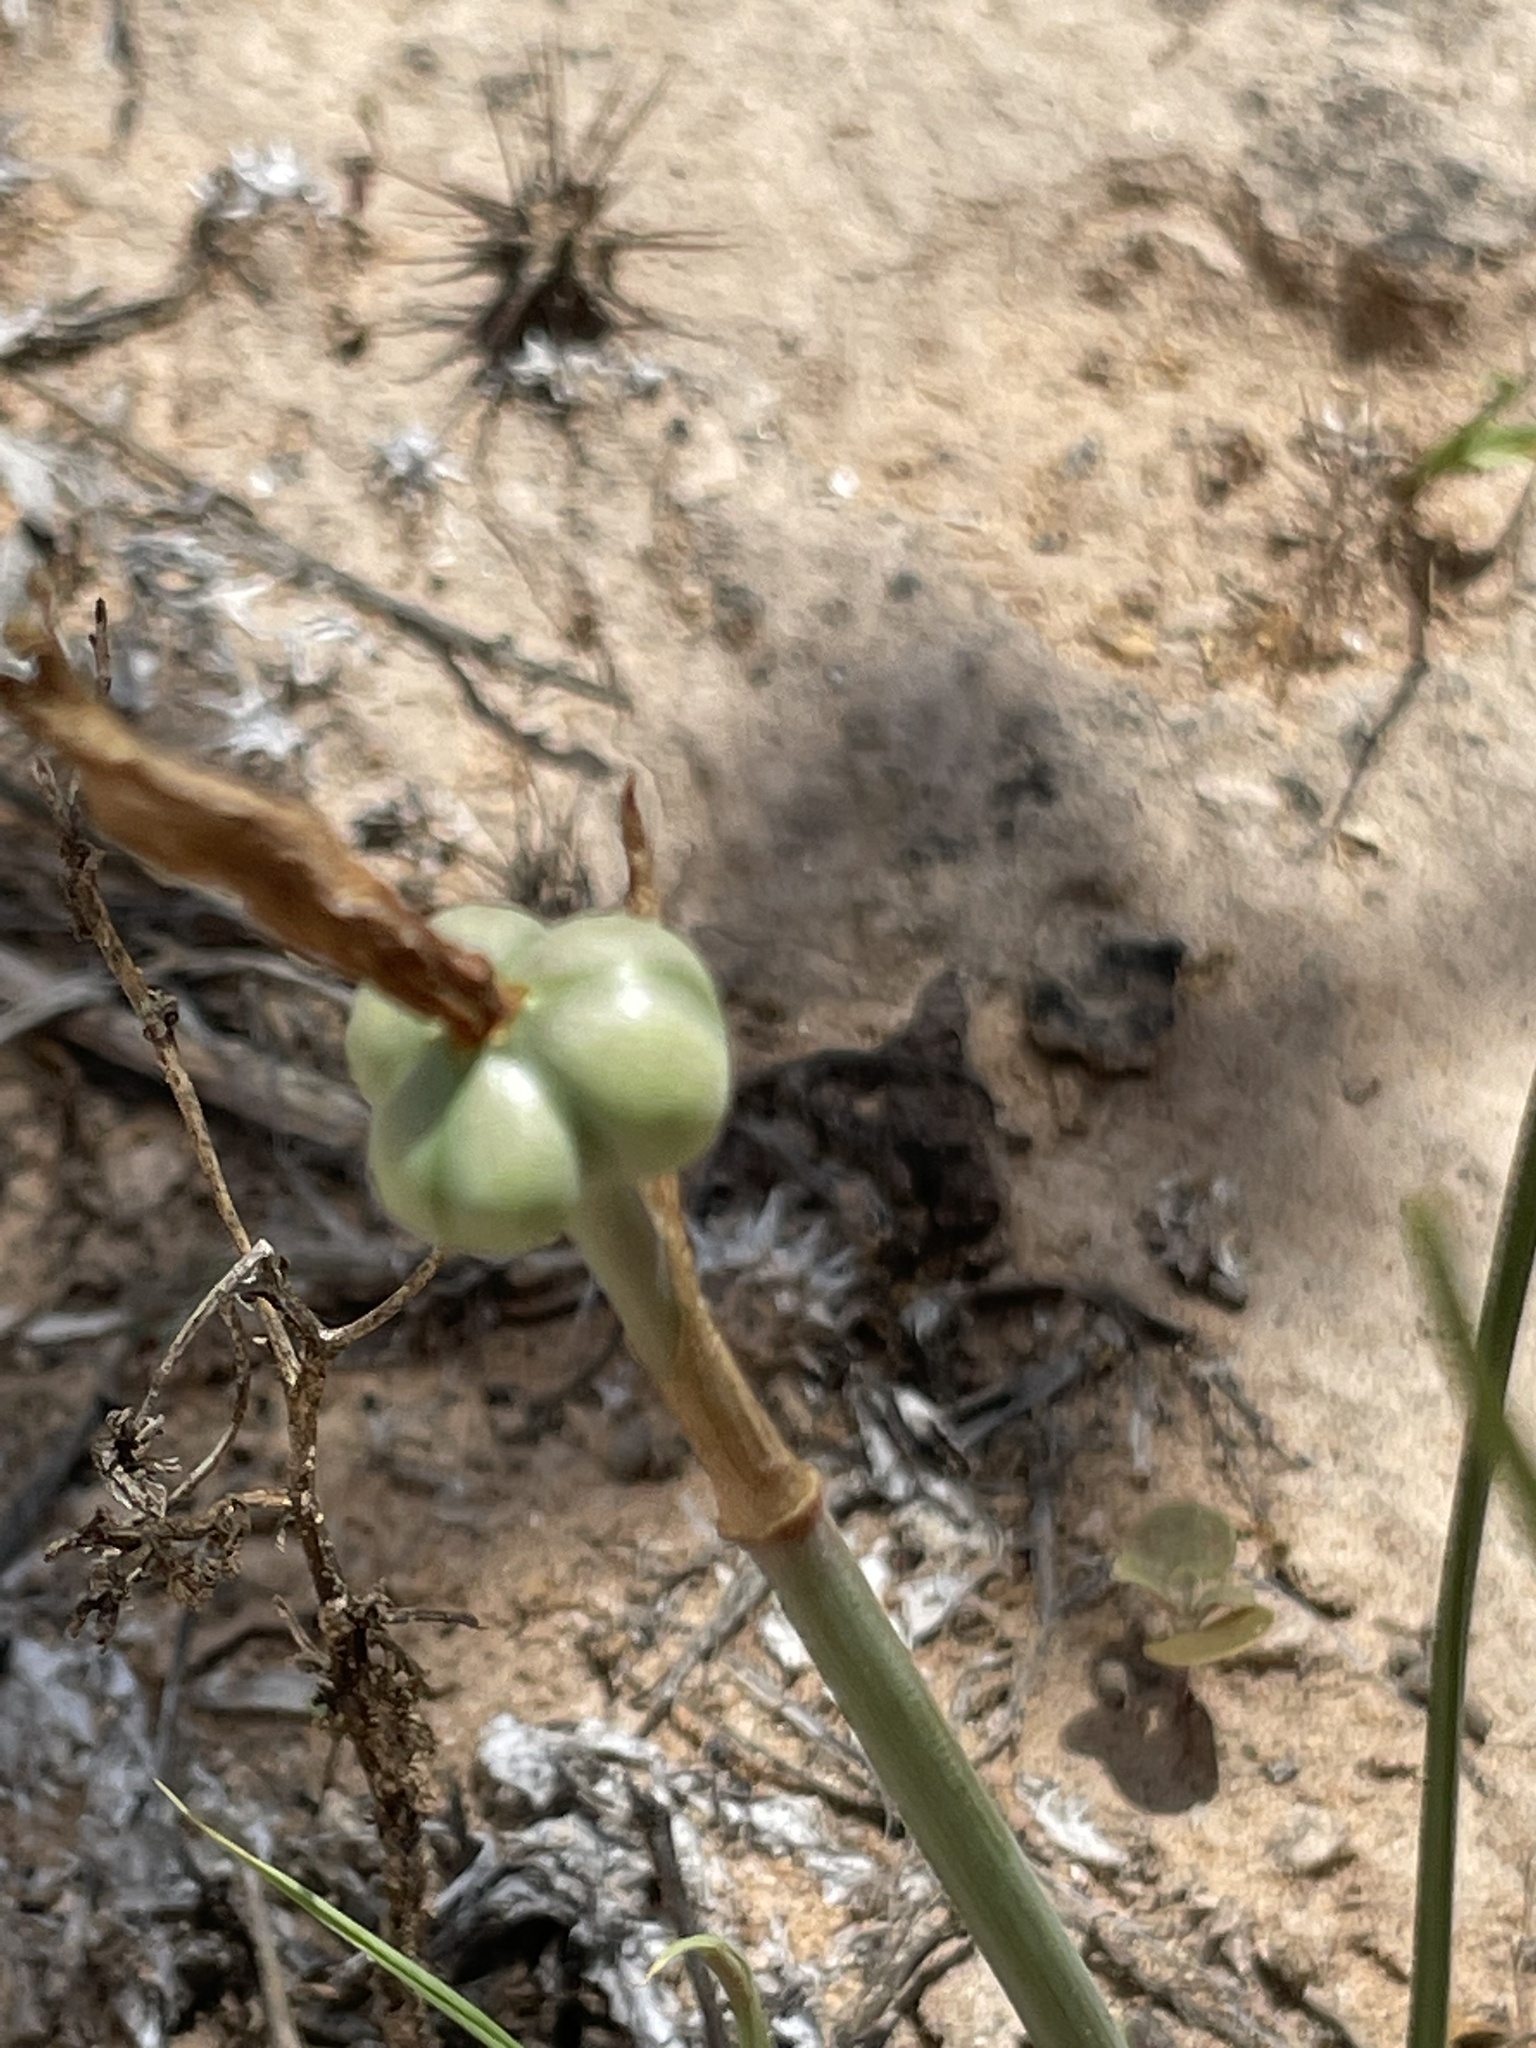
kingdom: Plantae
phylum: Tracheophyta
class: Liliopsida
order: Asparagales
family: Amaryllidaceae
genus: Zephyranthes
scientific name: Zephyranthes arenicola
